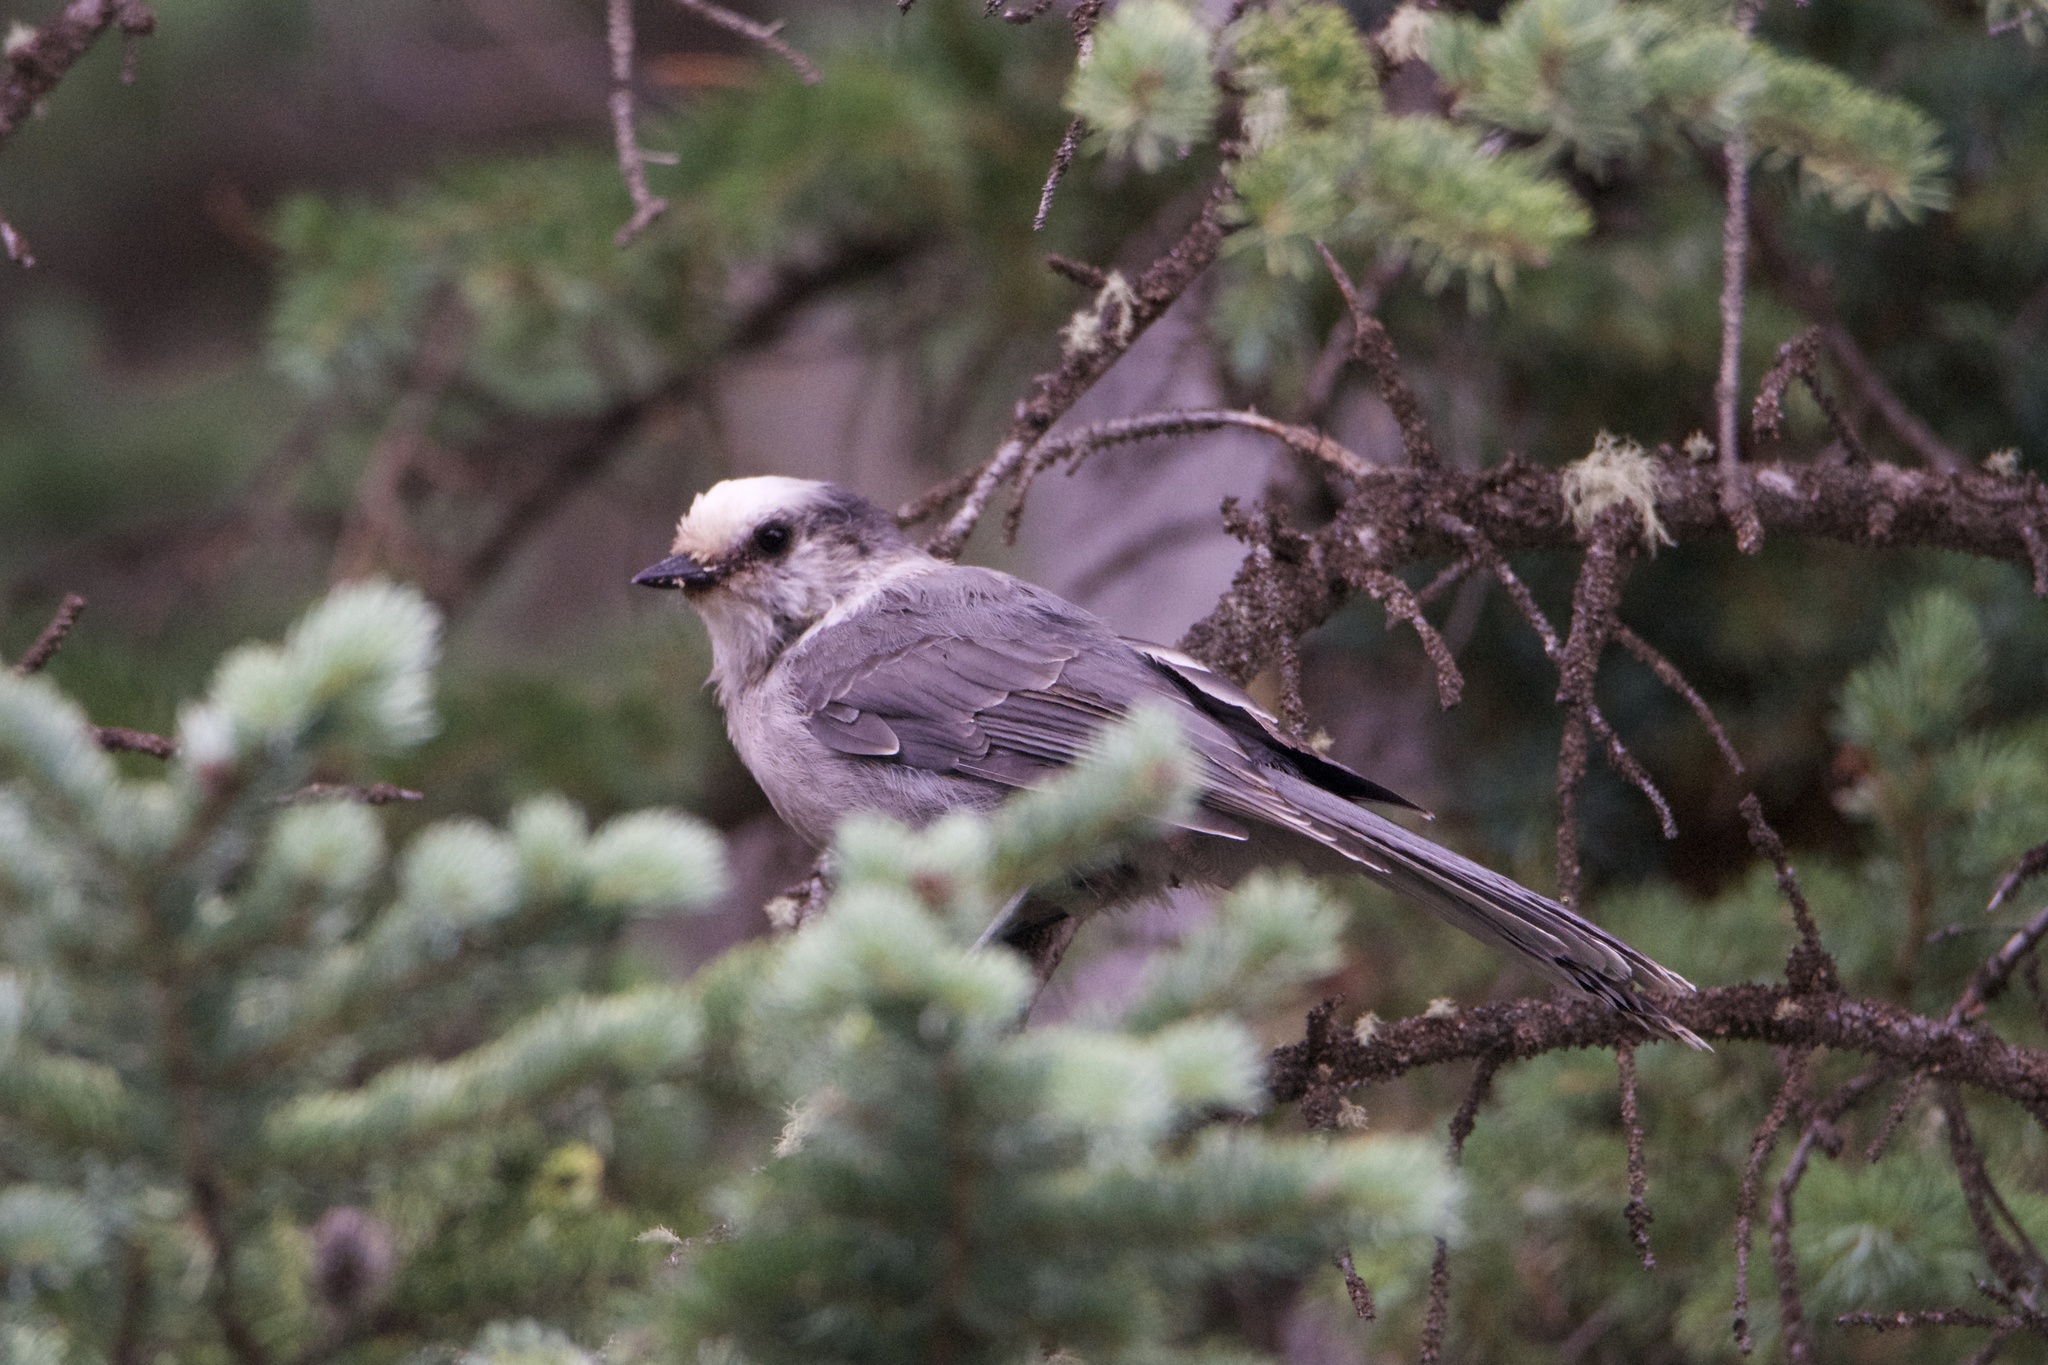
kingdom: Animalia
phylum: Chordata
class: Aves
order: Passeriformes
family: Corvidae
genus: Perisoreus
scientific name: Perisoreus canadensis
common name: Gray jay
